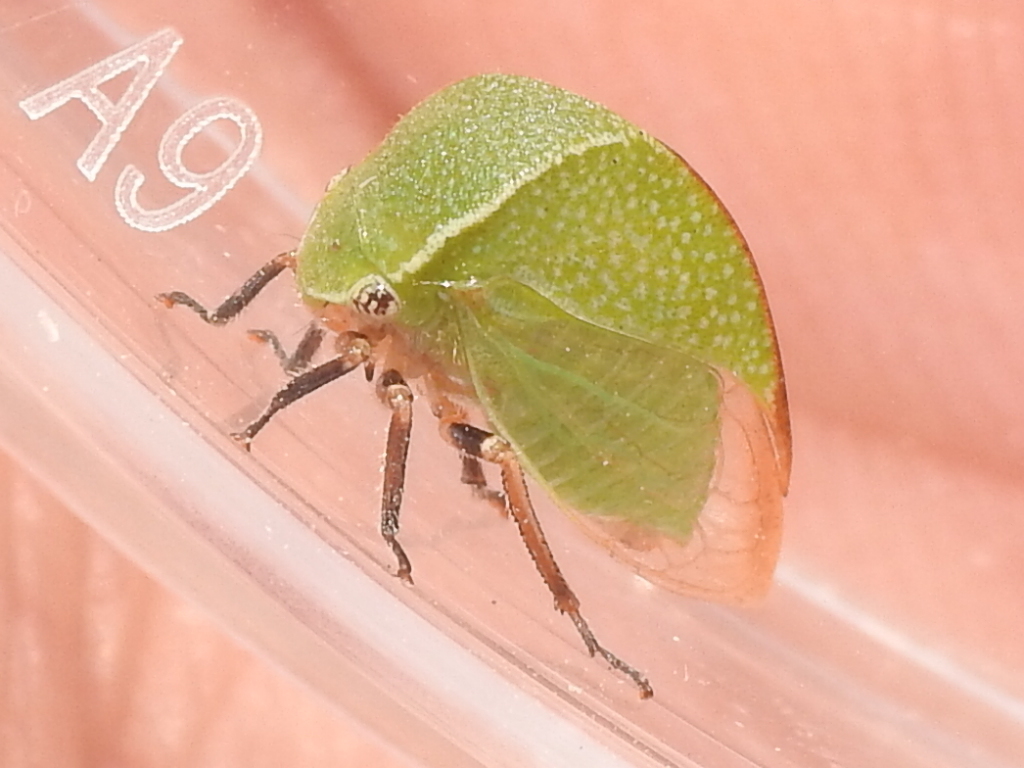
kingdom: Animalia
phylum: Arthropoda
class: Insecta
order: Hemiptera
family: Membracidae
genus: Tortistilus
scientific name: Tortistilus inermis
